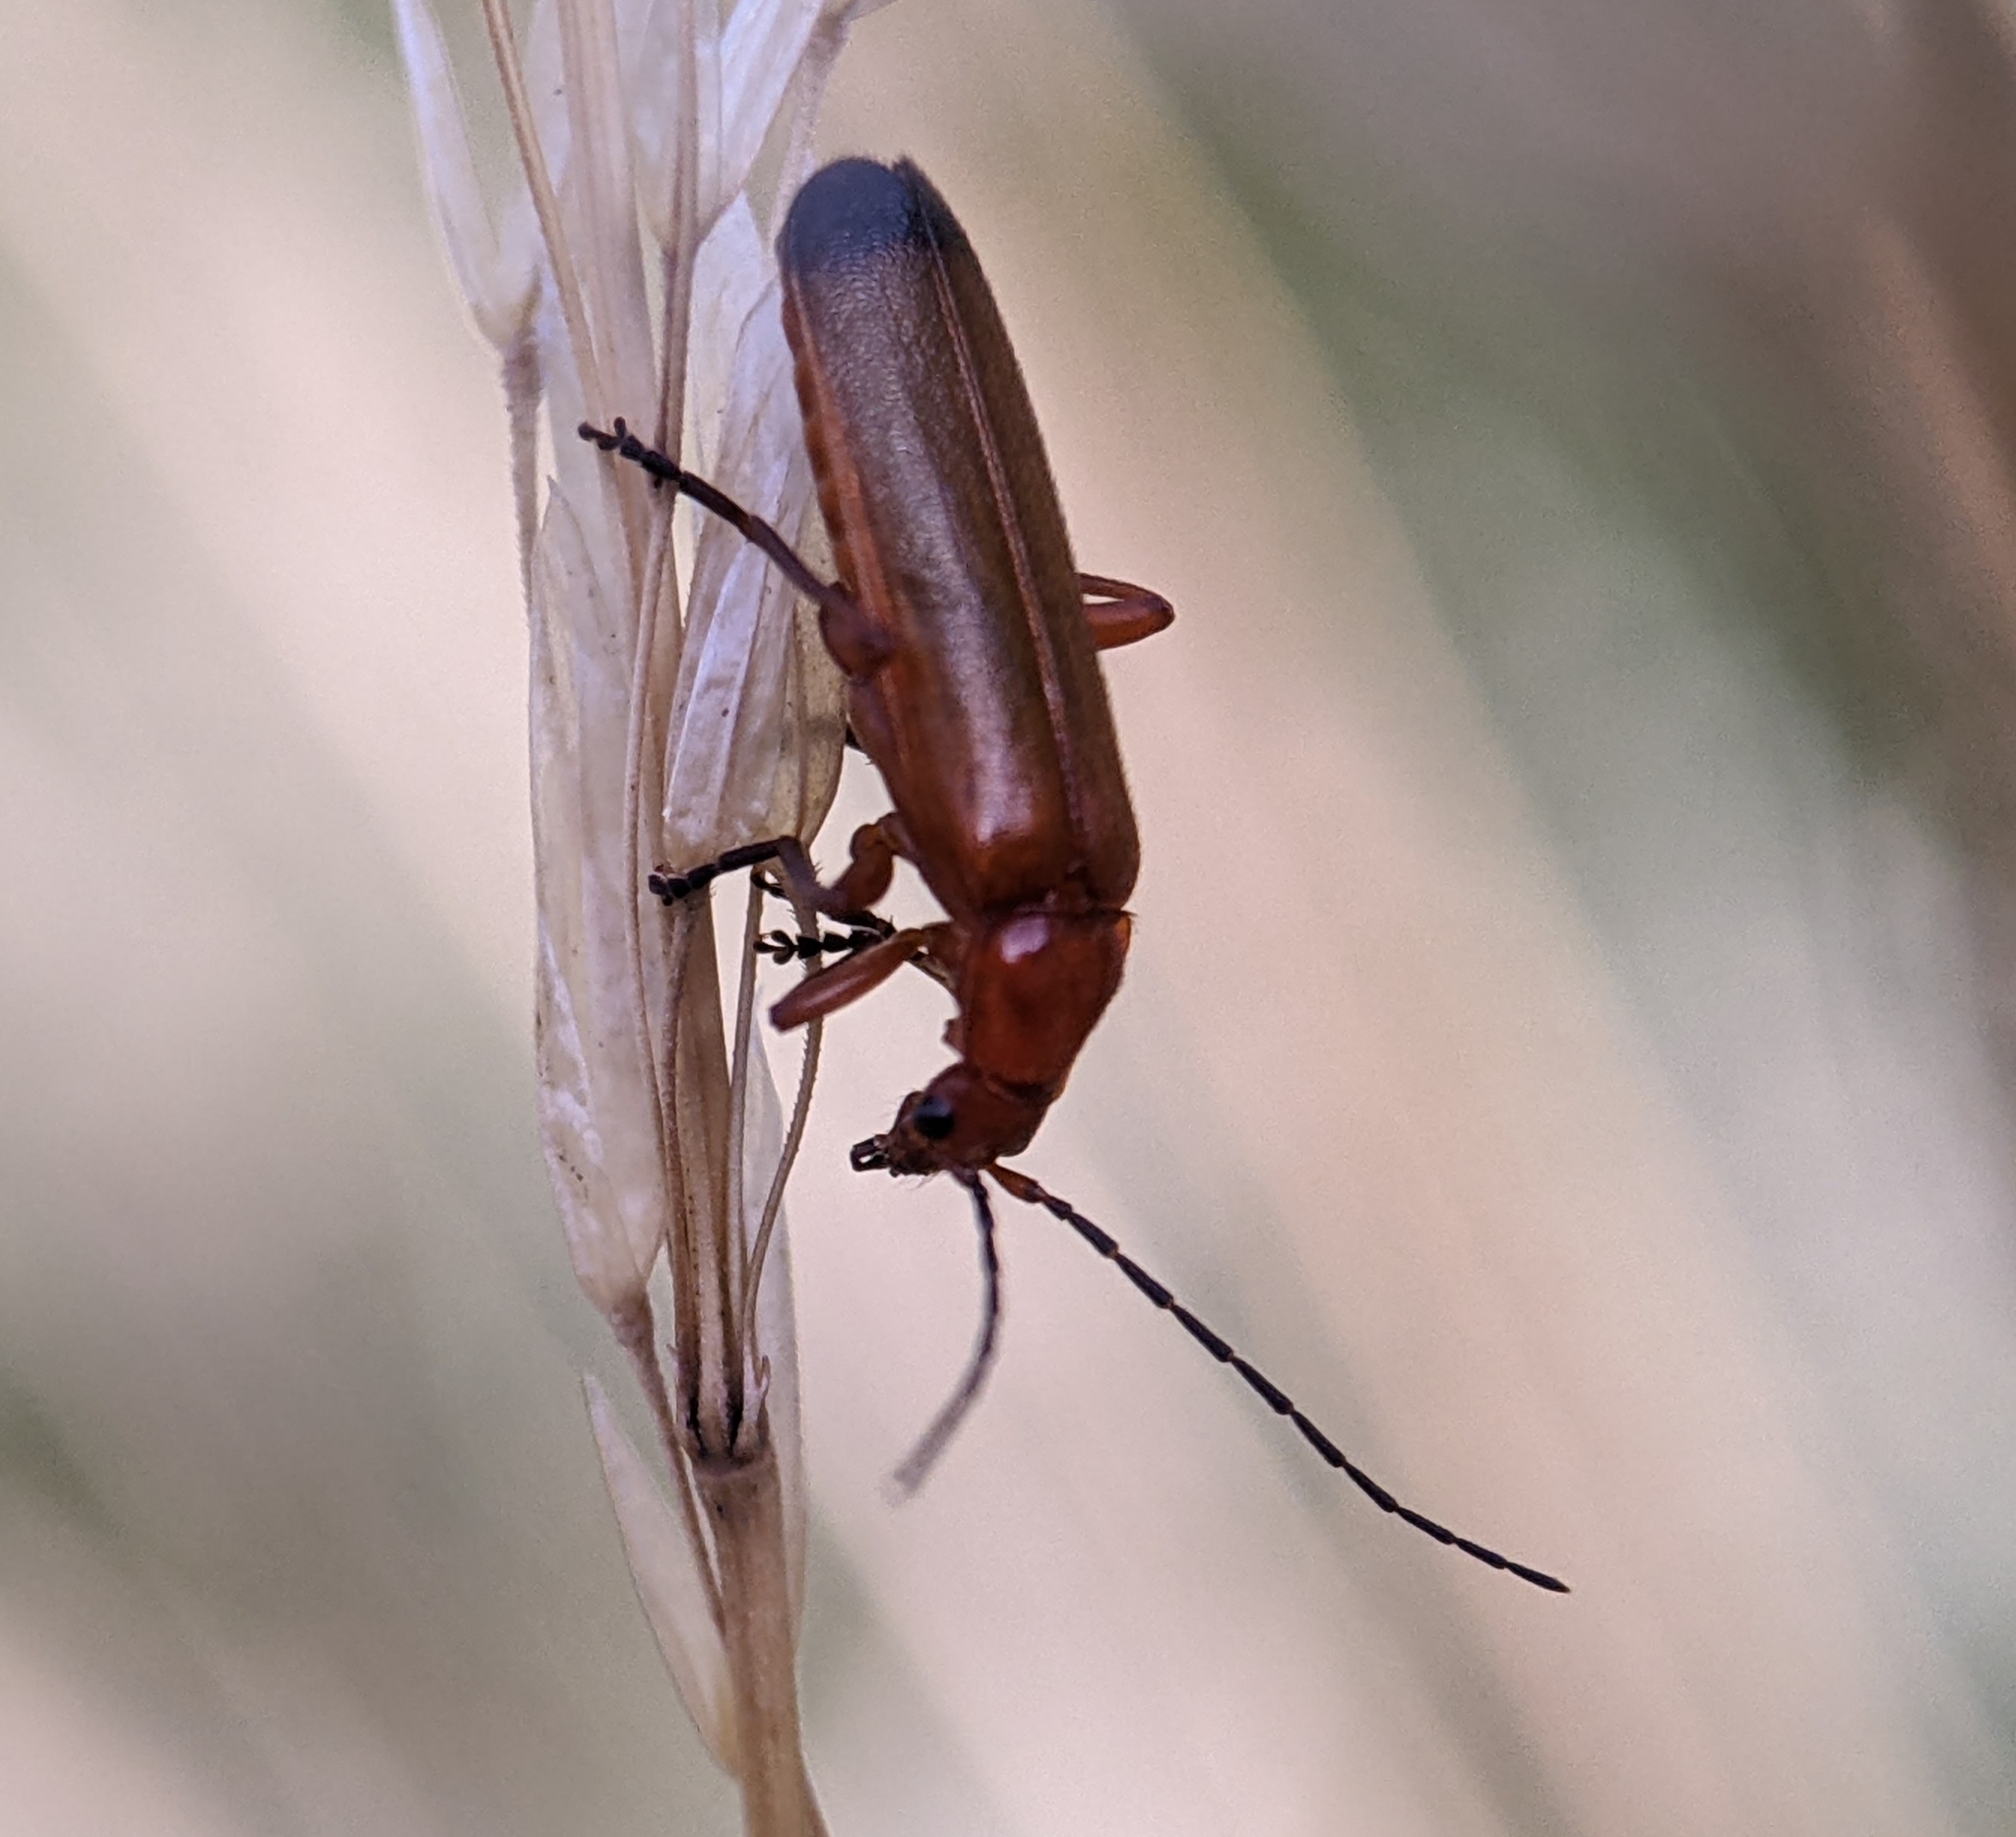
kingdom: Animalia
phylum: Arthropoda
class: Insecta
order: Coleoptera
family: Cantharidae
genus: Rhagonycha
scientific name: Rhagonycha fulva
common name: Common red soldier beetle
